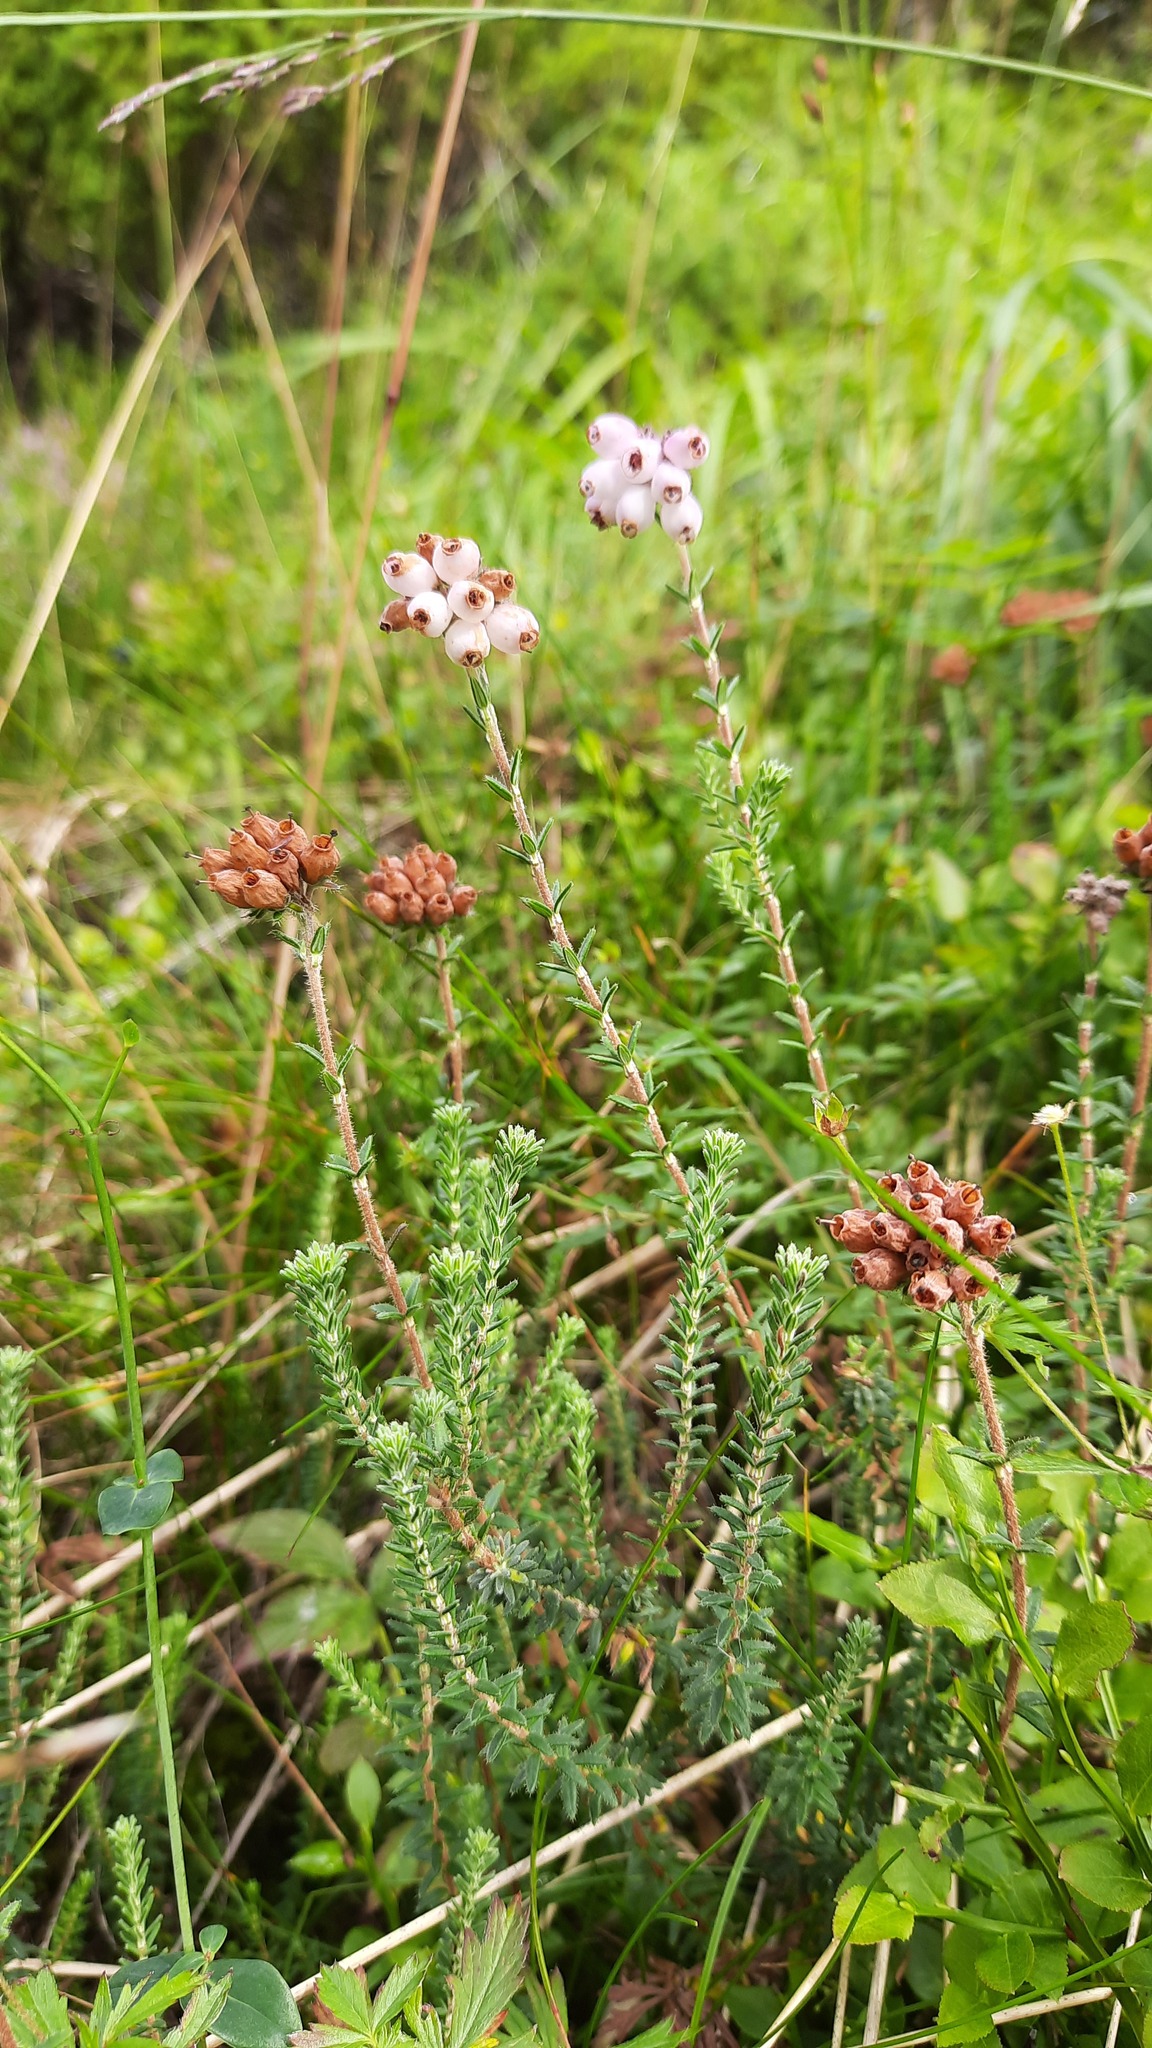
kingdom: Plantae
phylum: Tracheophyta
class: Magnoliopsida
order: Ericales
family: Ericaceae
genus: Erica
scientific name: Erica tetralix
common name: Cross-leaved heath
